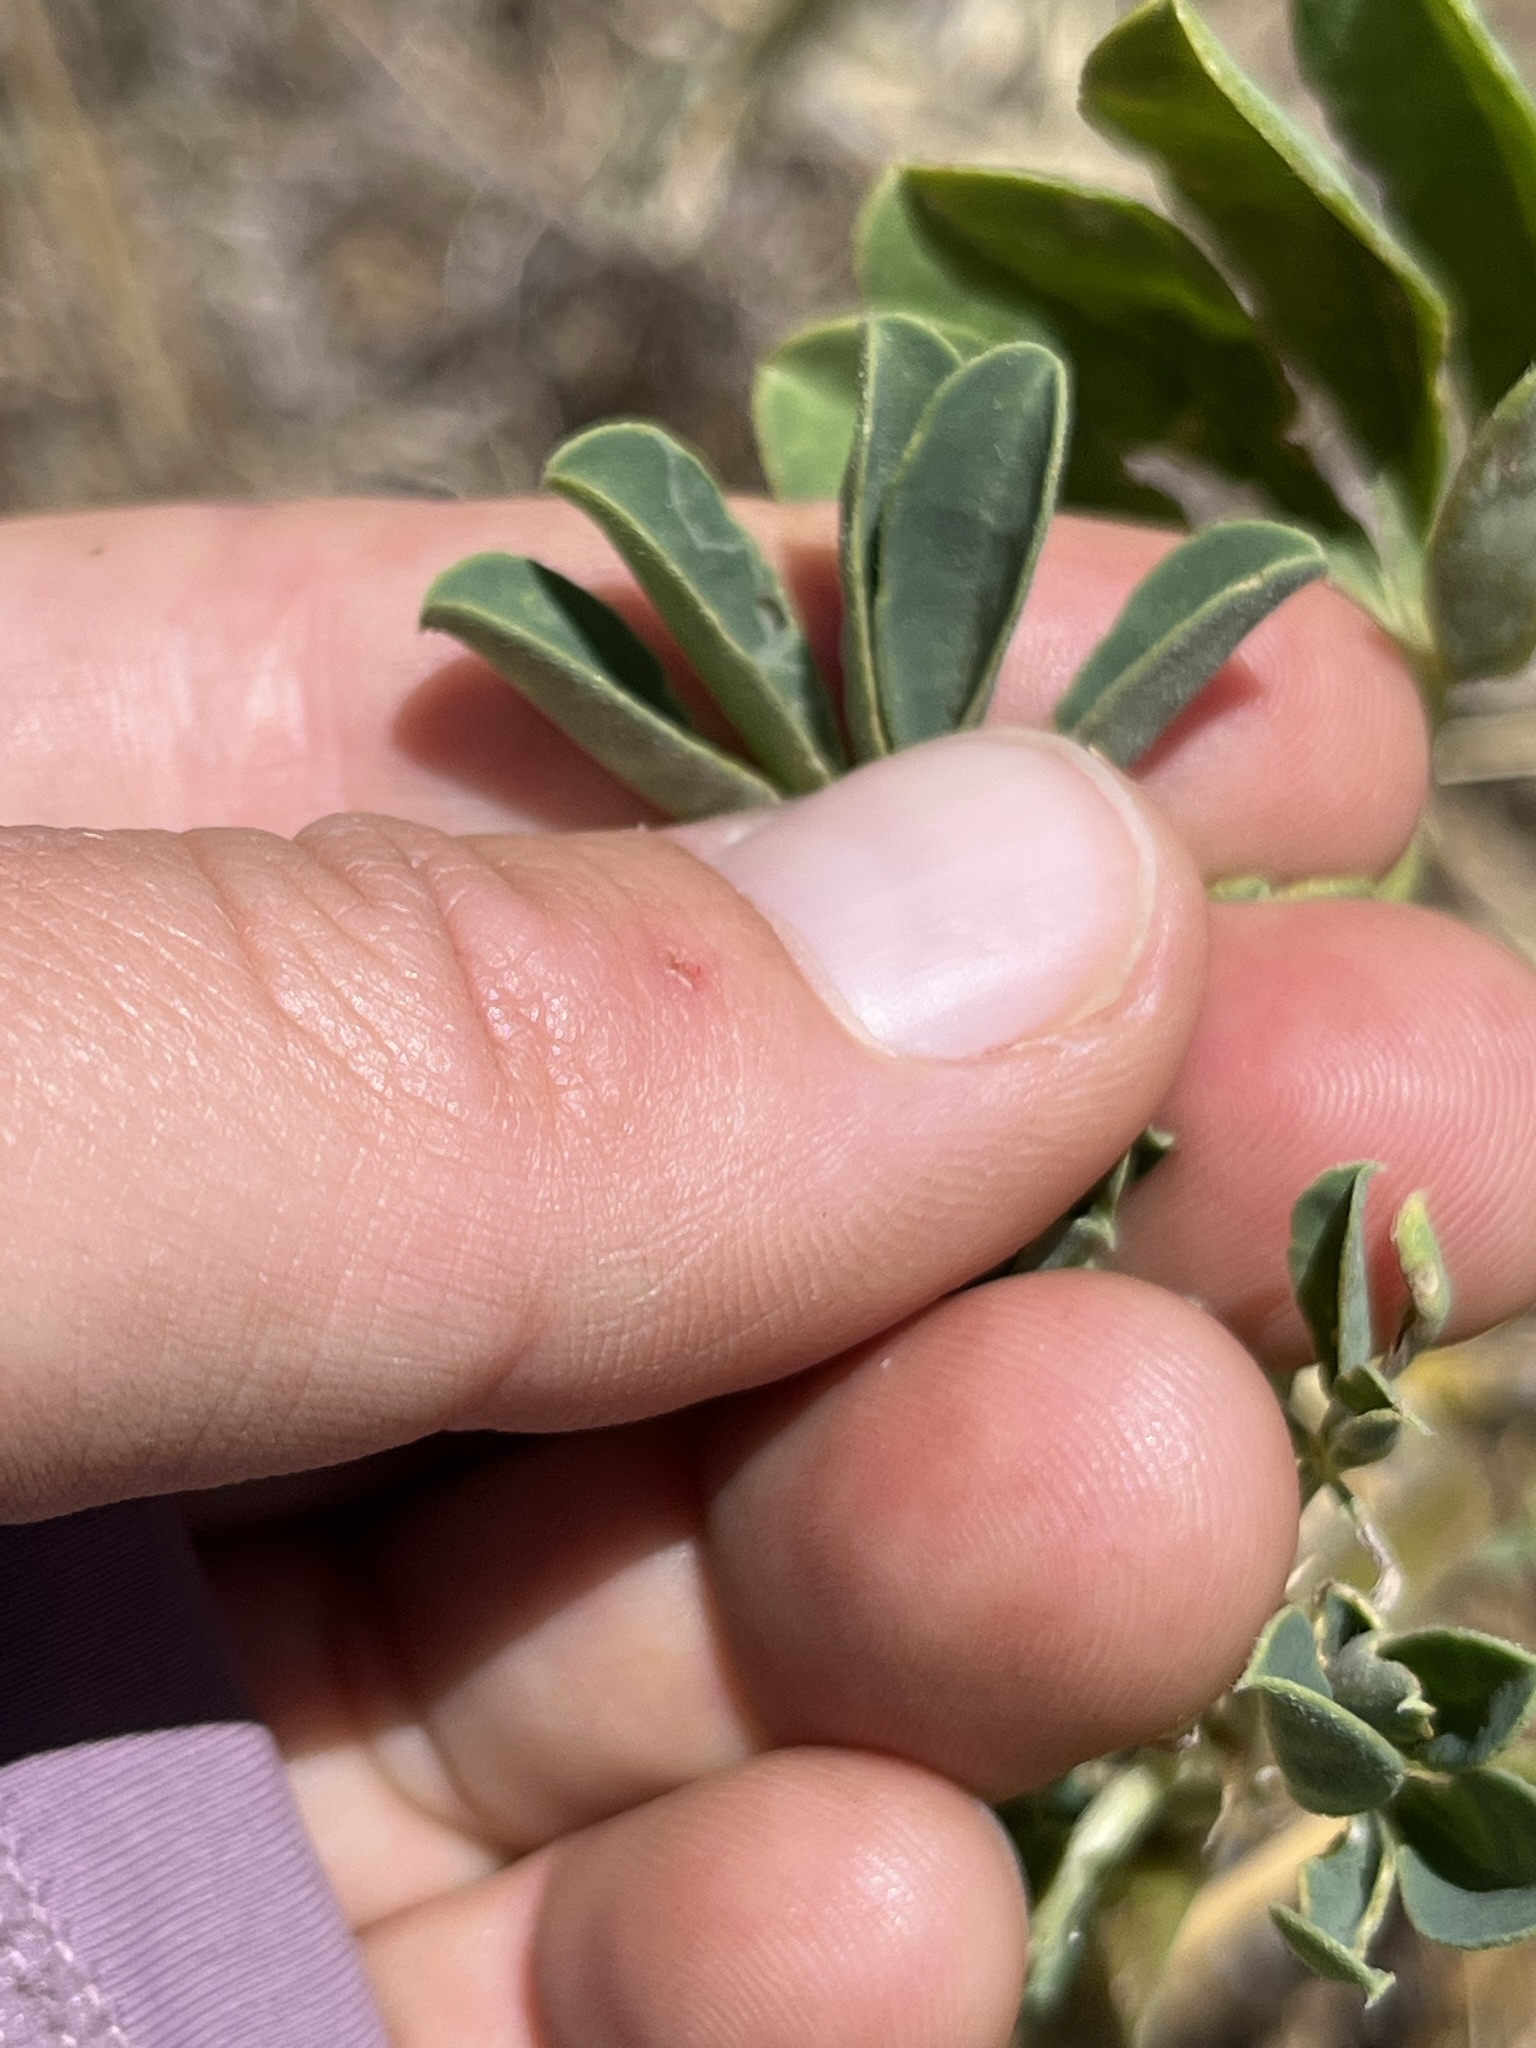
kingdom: Plantae
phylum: Tracheophyta
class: Magnoliopsida
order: Fabales
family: Fabaceae
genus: Lupinus
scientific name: Lupinus succulentus
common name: Arroyo lupine
